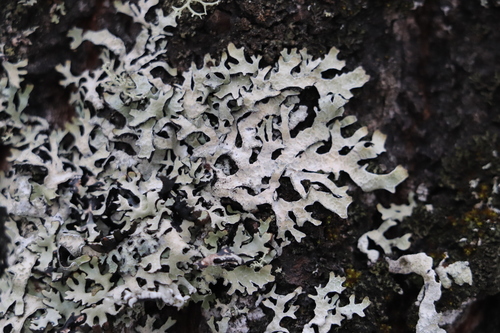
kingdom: Fungi
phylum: Ascomycota
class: Lecanoromycetes
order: Lecanorales
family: Parmeliaceae
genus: Parmelia
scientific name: Parmelia sulcata
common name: Netted shield lichen
